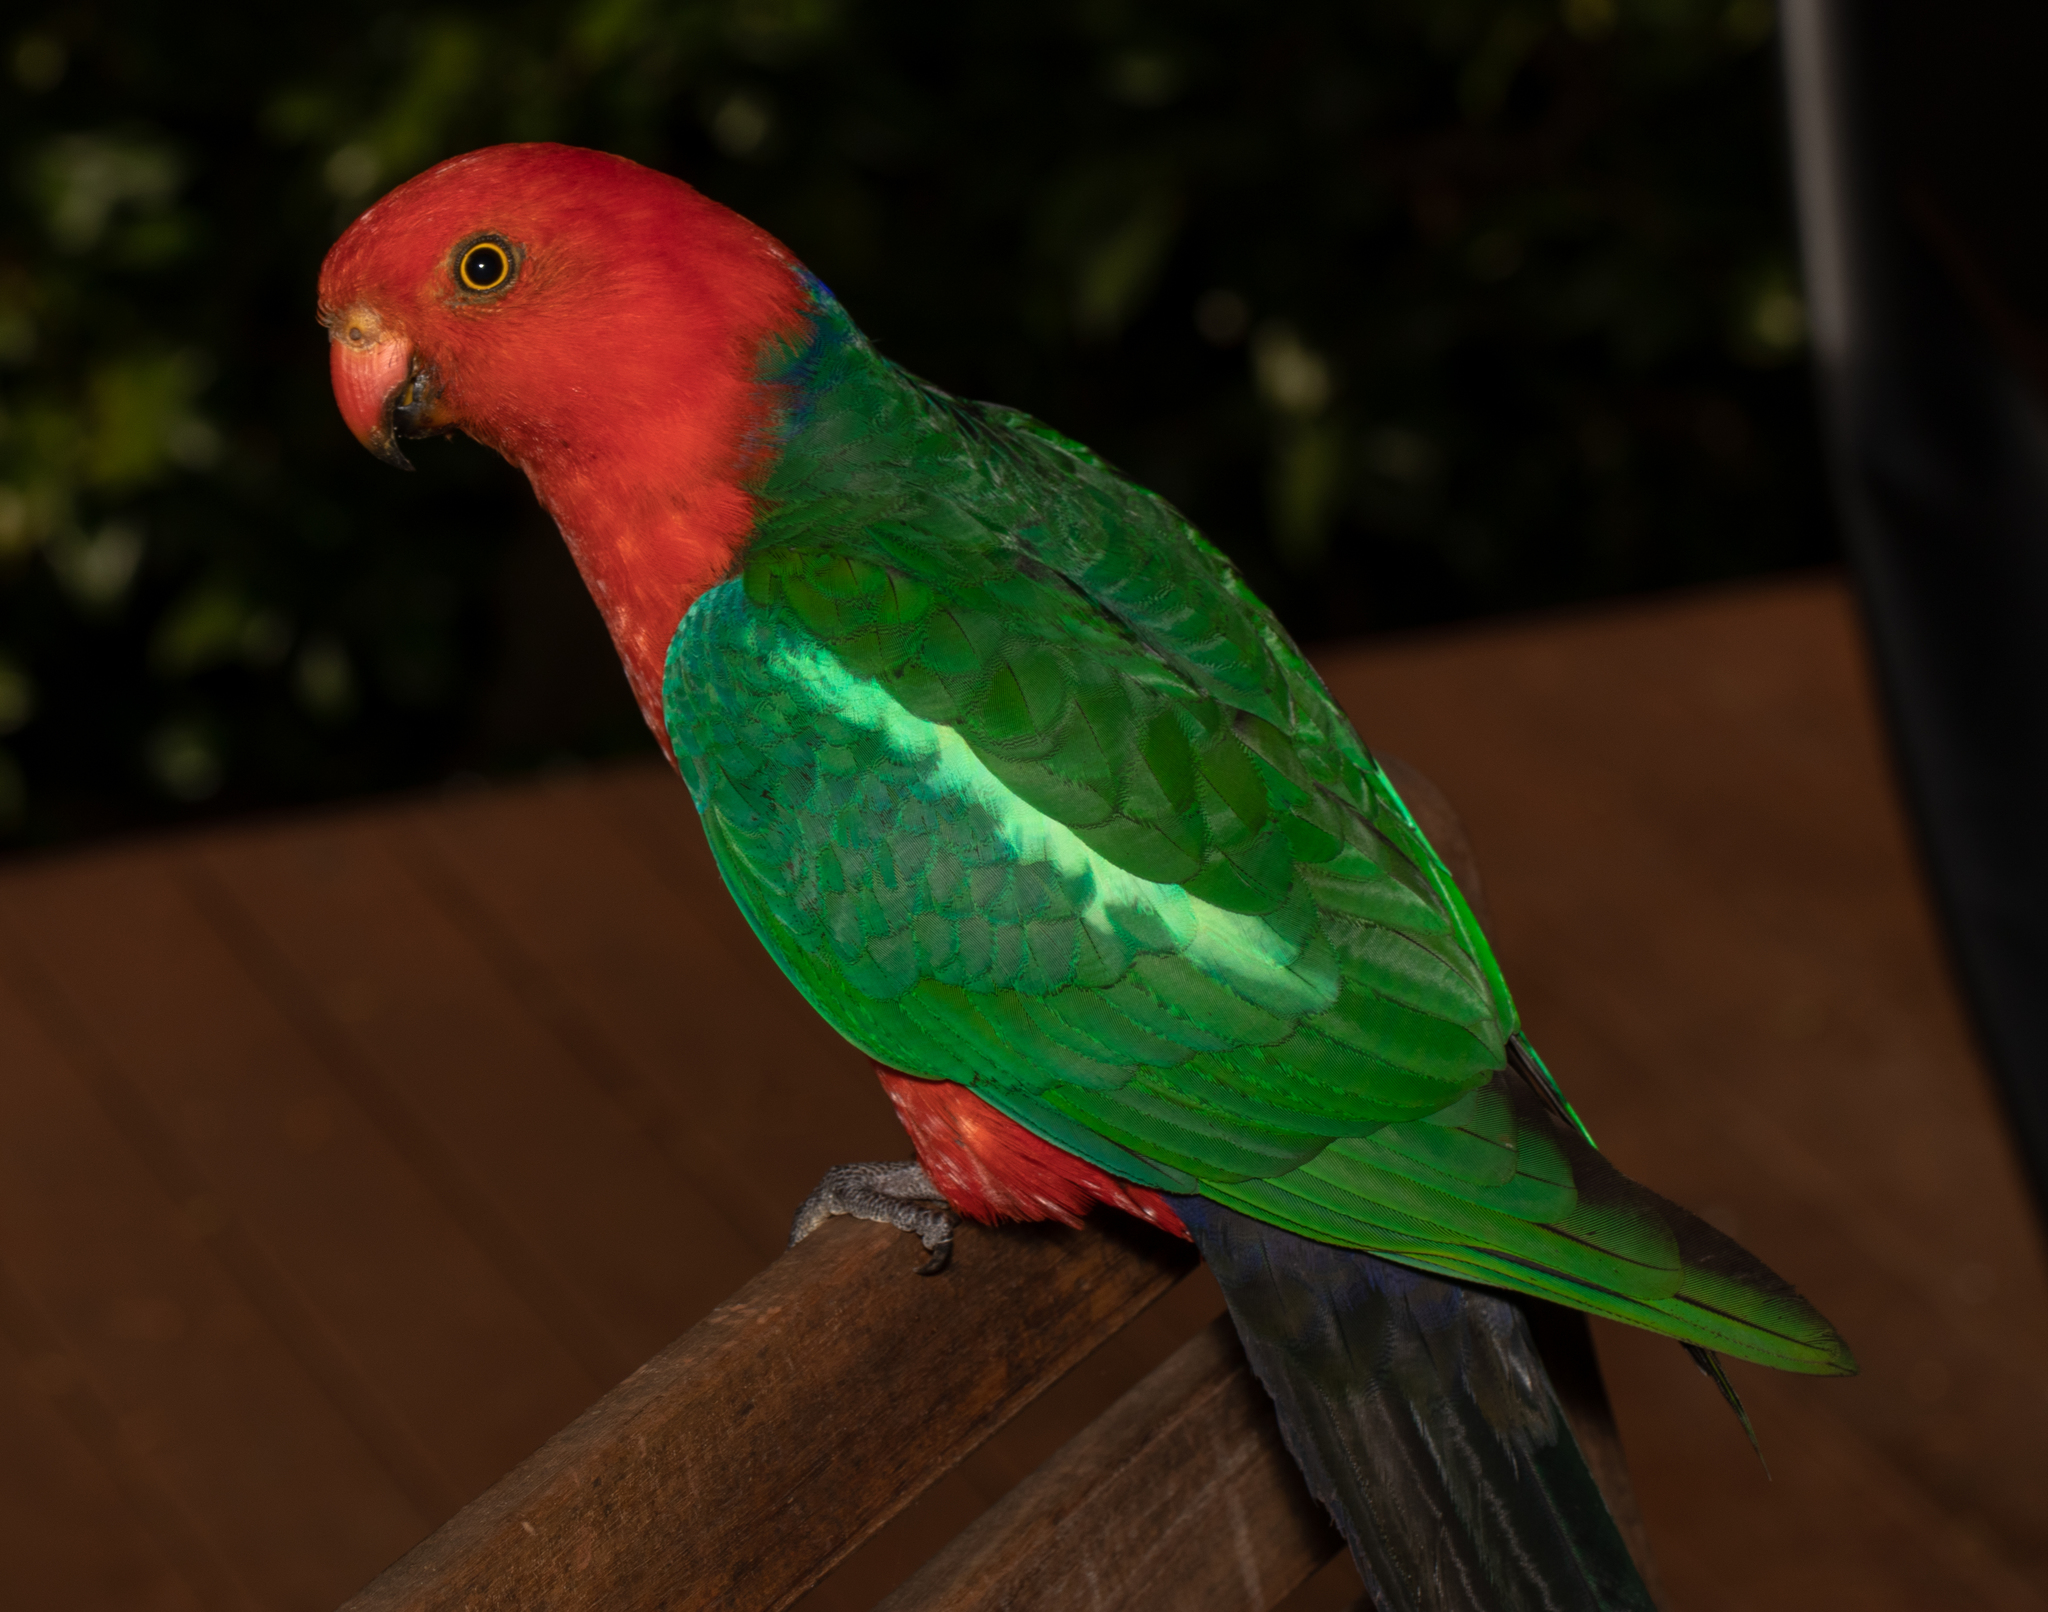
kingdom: Animalia
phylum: Chordata
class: Aves
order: Psittaciformes
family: Psittacidae
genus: Alisterus
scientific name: Alisterus scapularis
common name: Australian king parrot
